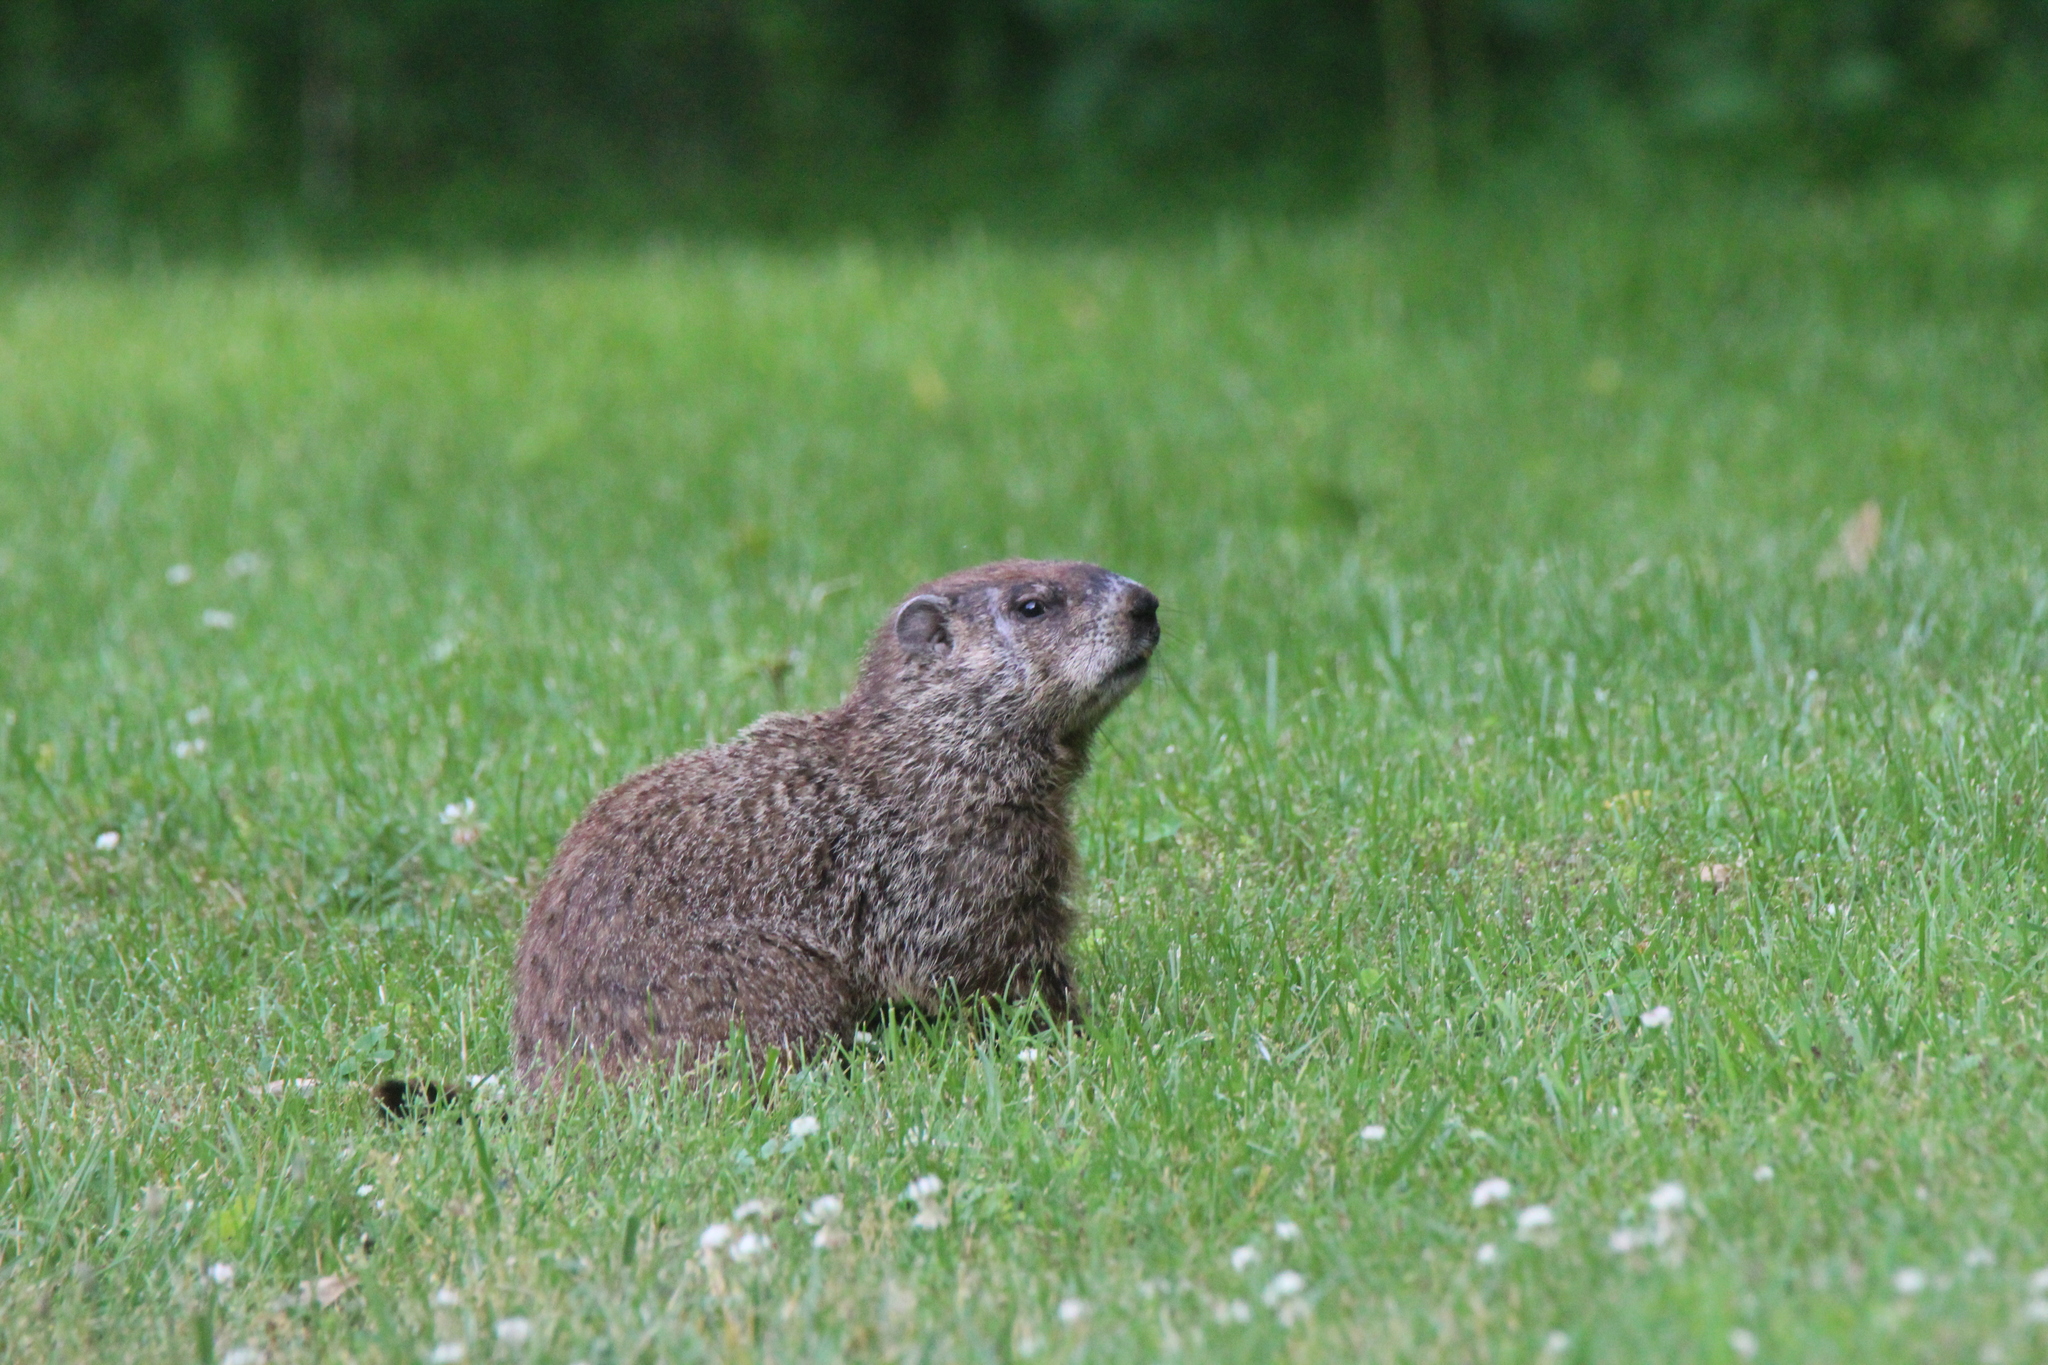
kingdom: Animalia
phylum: Chordata
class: Mammalia
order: Rodentia
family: Sciuridae
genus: Marmota
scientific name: Marmota monax
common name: Groundhog
